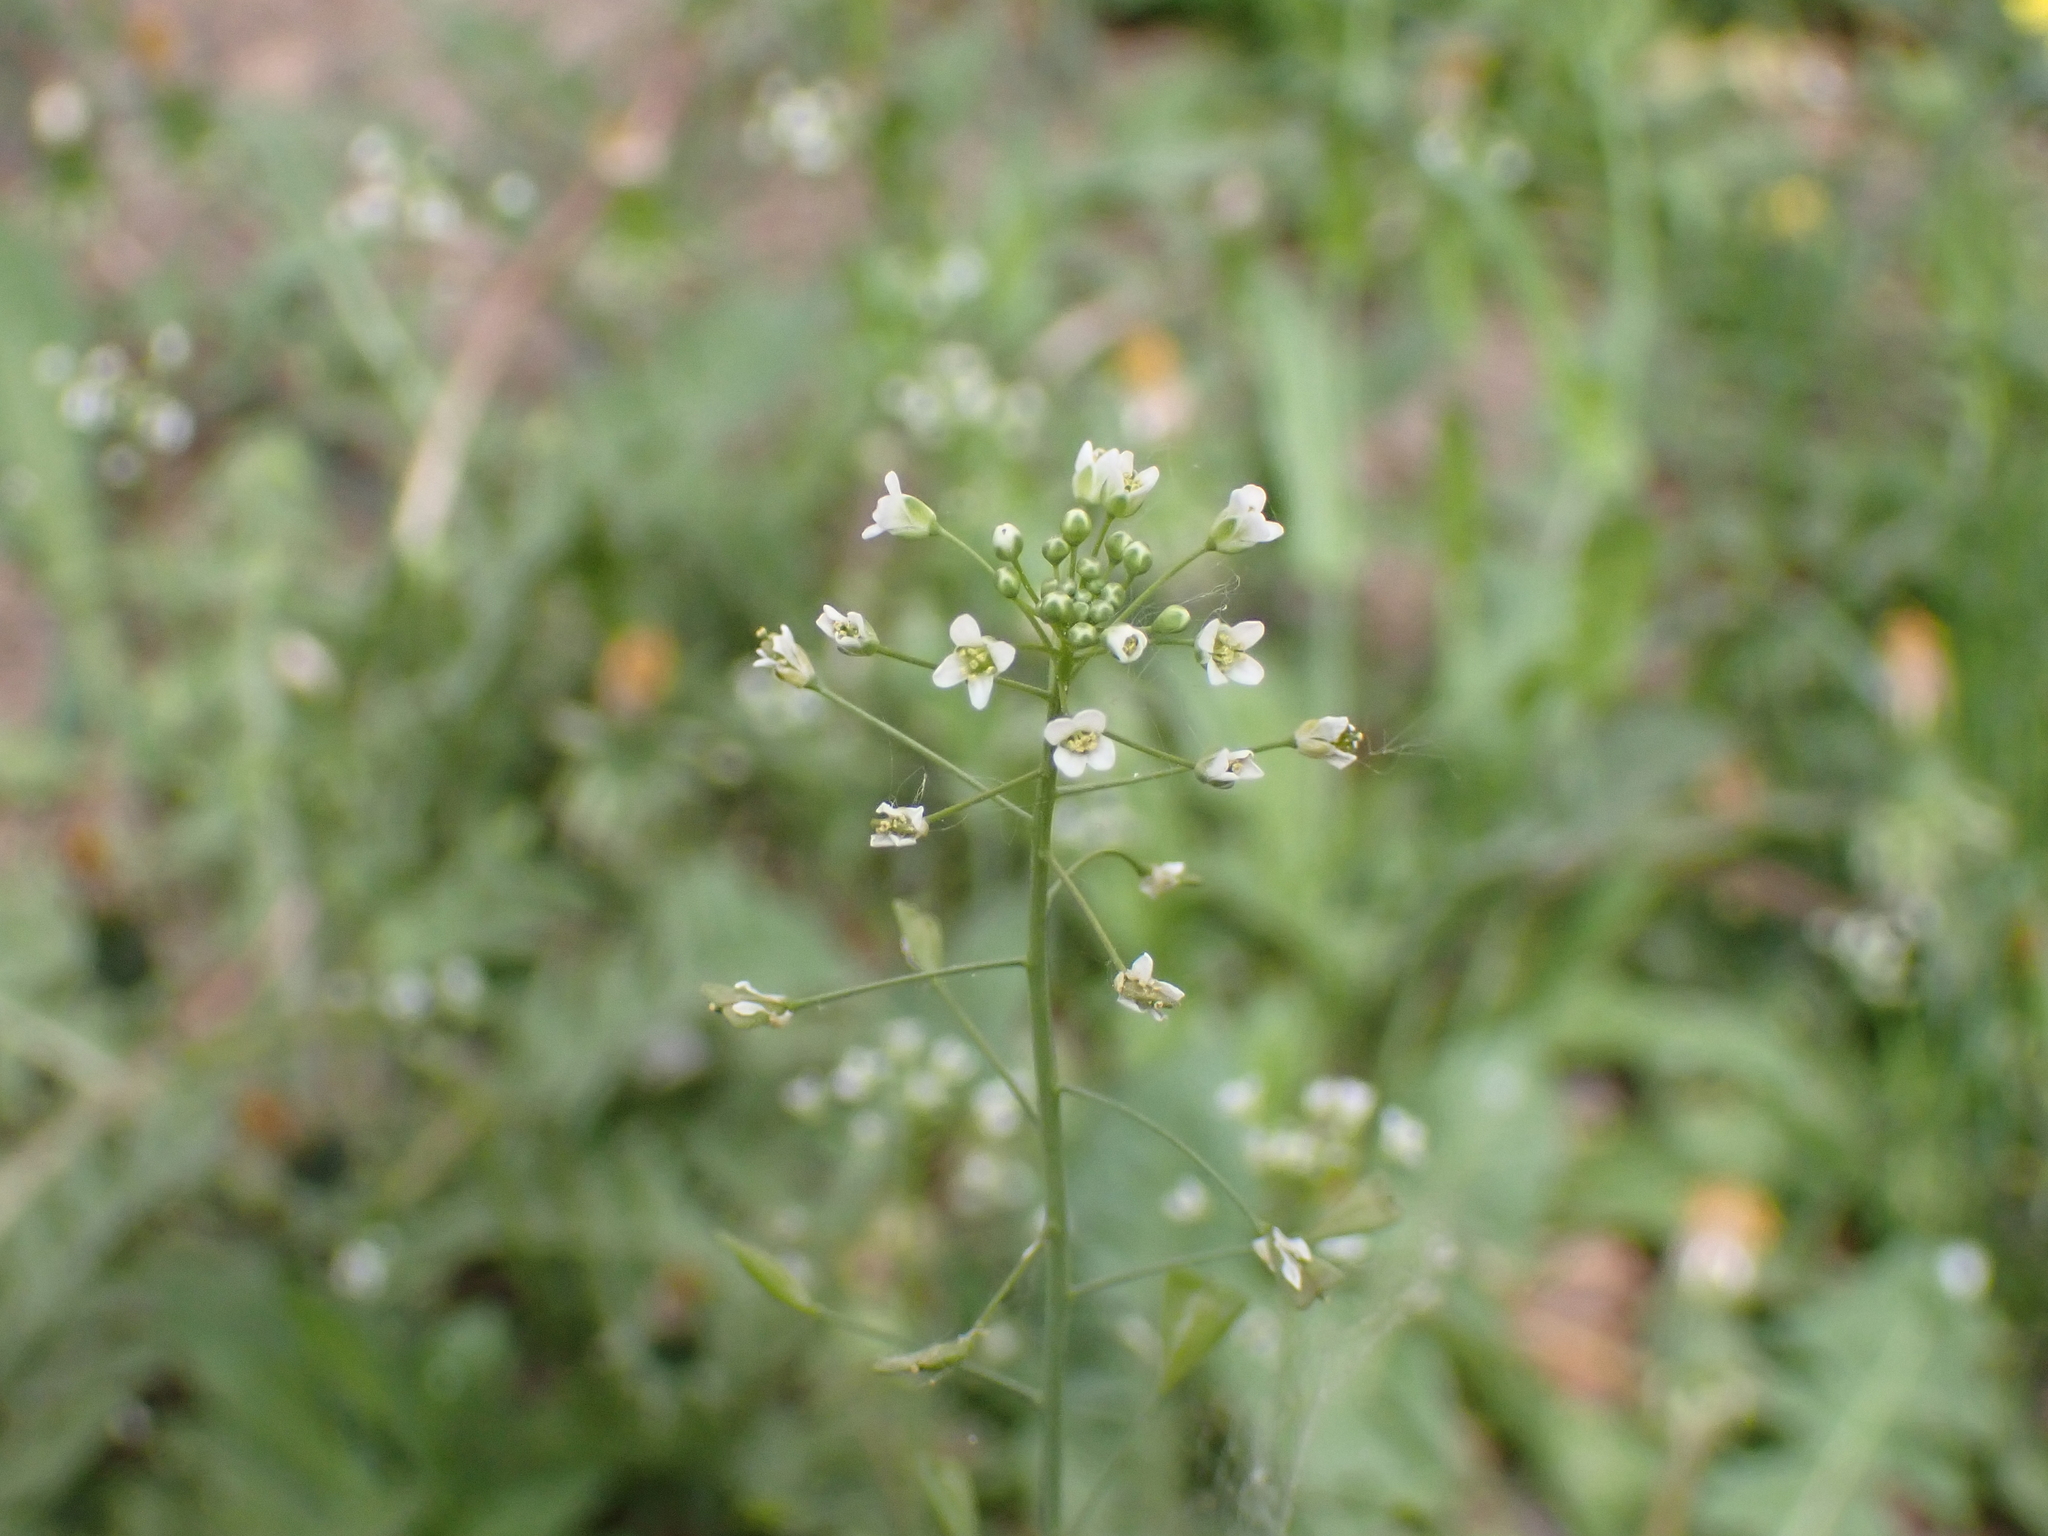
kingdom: Plantae
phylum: Tracheophyta
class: Magnoliopsida
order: Brassicales
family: Brassicaceae
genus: Capsella
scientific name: Capsella bursa-pastoris
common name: Shepherd's purse
